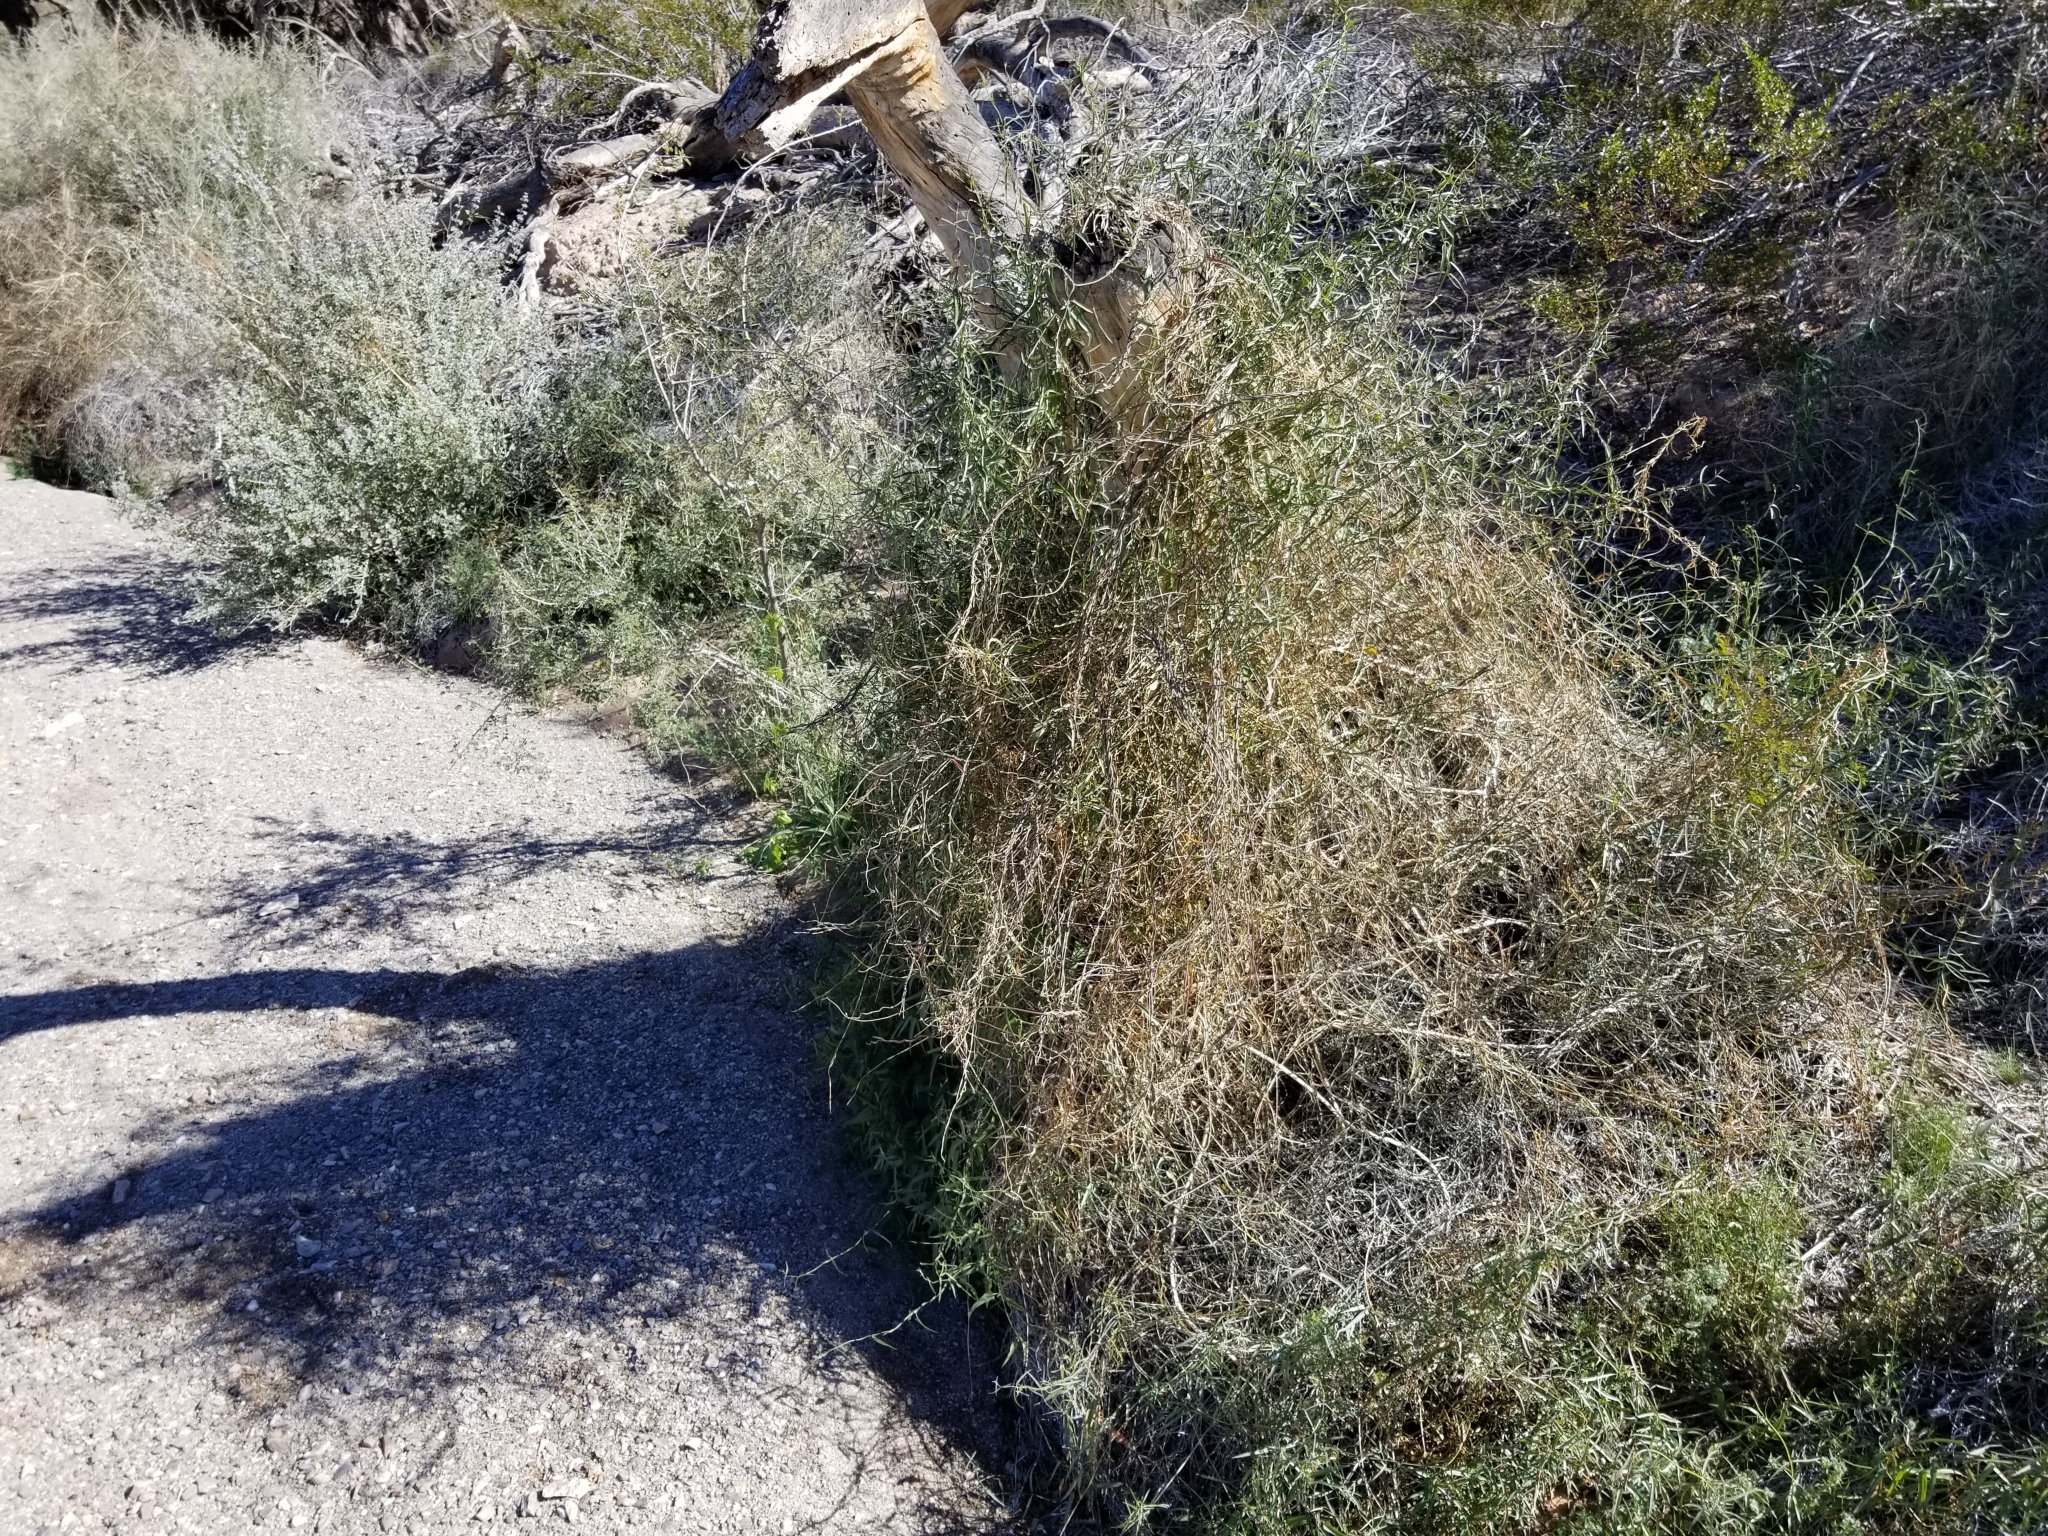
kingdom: Plantae
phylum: Tracheophyta
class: Magnoliopsida
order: Gentianales
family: Apocynaceae
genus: Funastrum
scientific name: Funastrum heterophyllum
